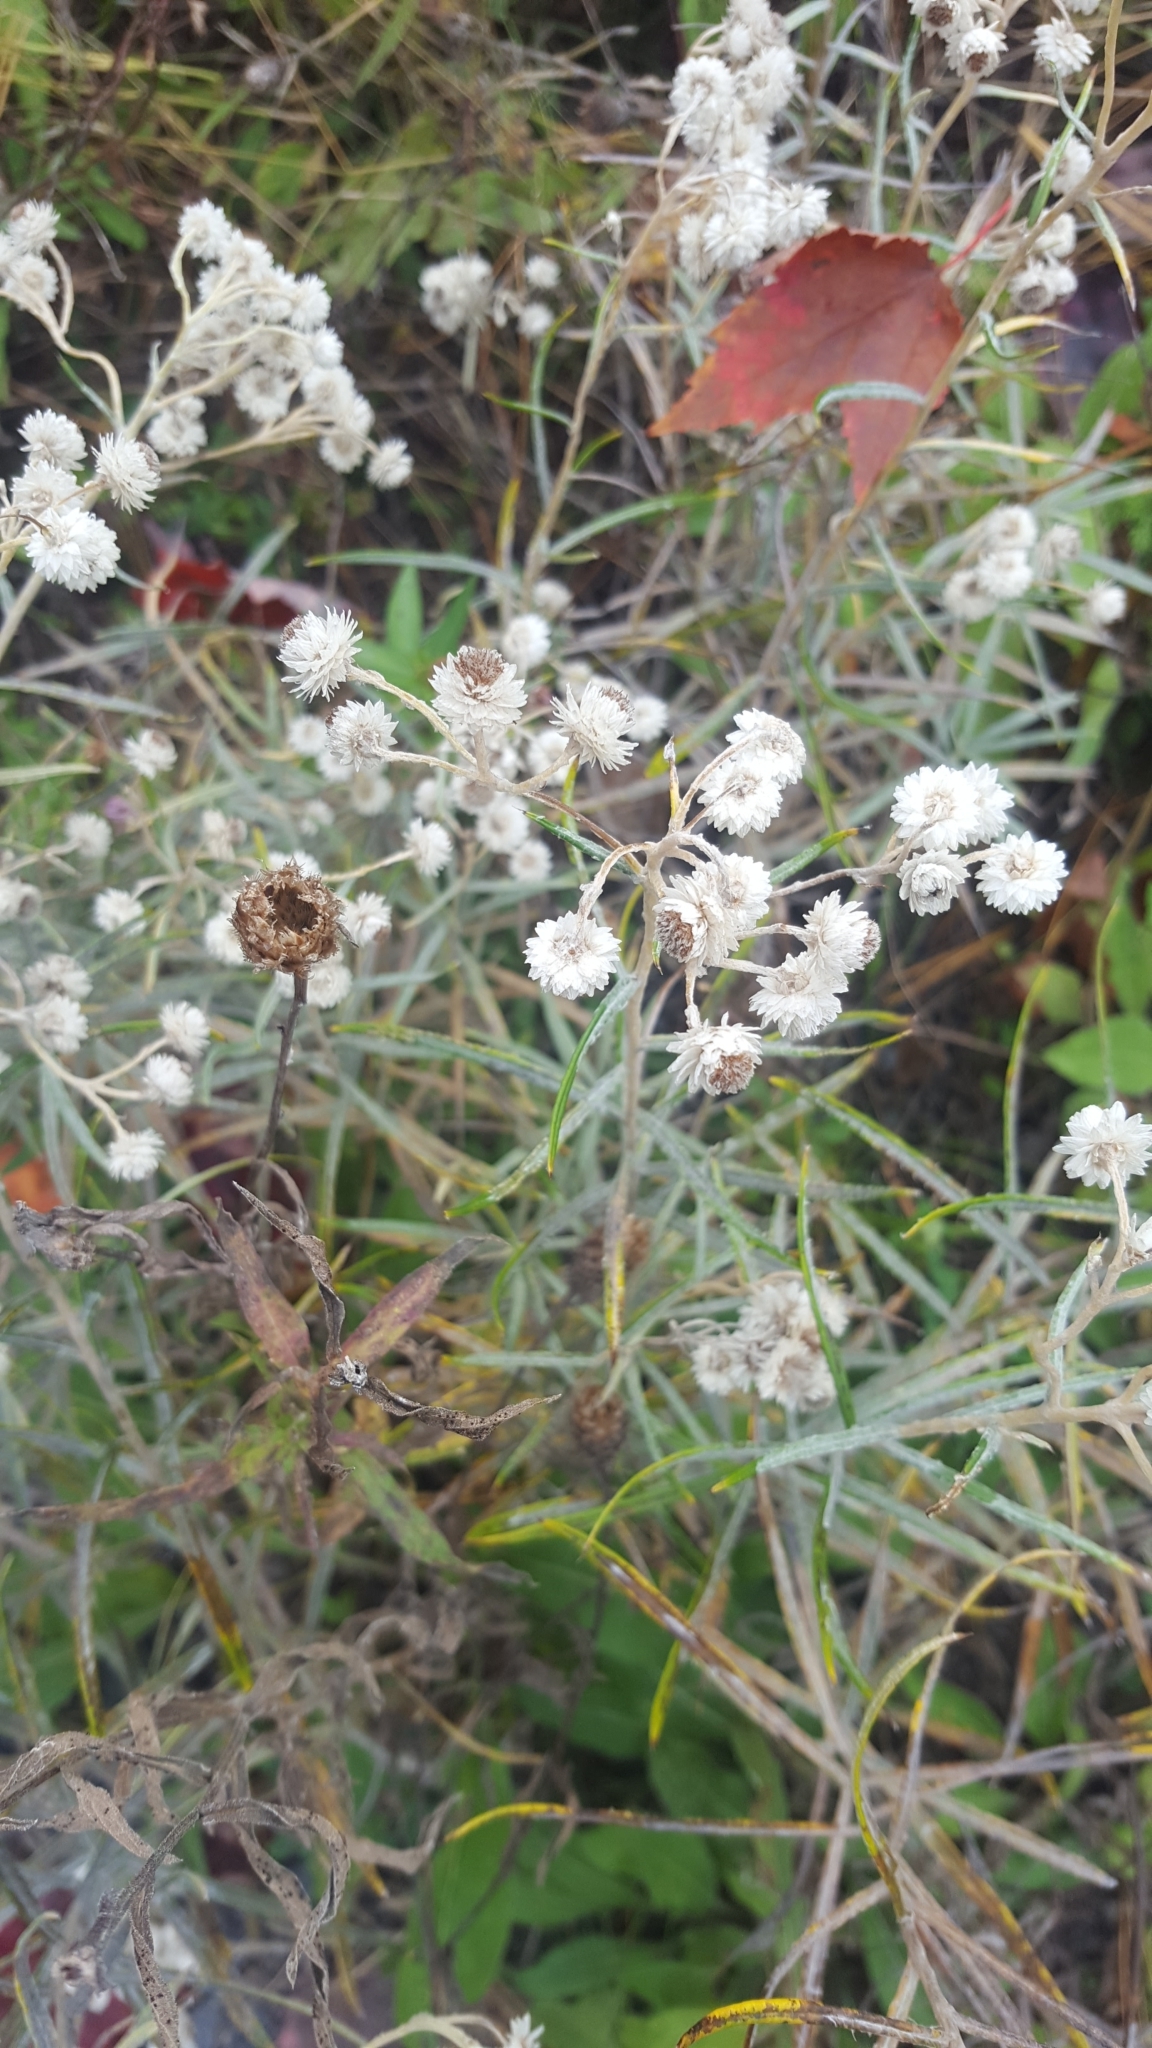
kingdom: Plantae
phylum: Tracheophyta
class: Magnoliopsida
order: Asterales
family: Asteraceae
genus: Anaphalis
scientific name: Anaphalis margaritacea
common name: Pearly everlasting
